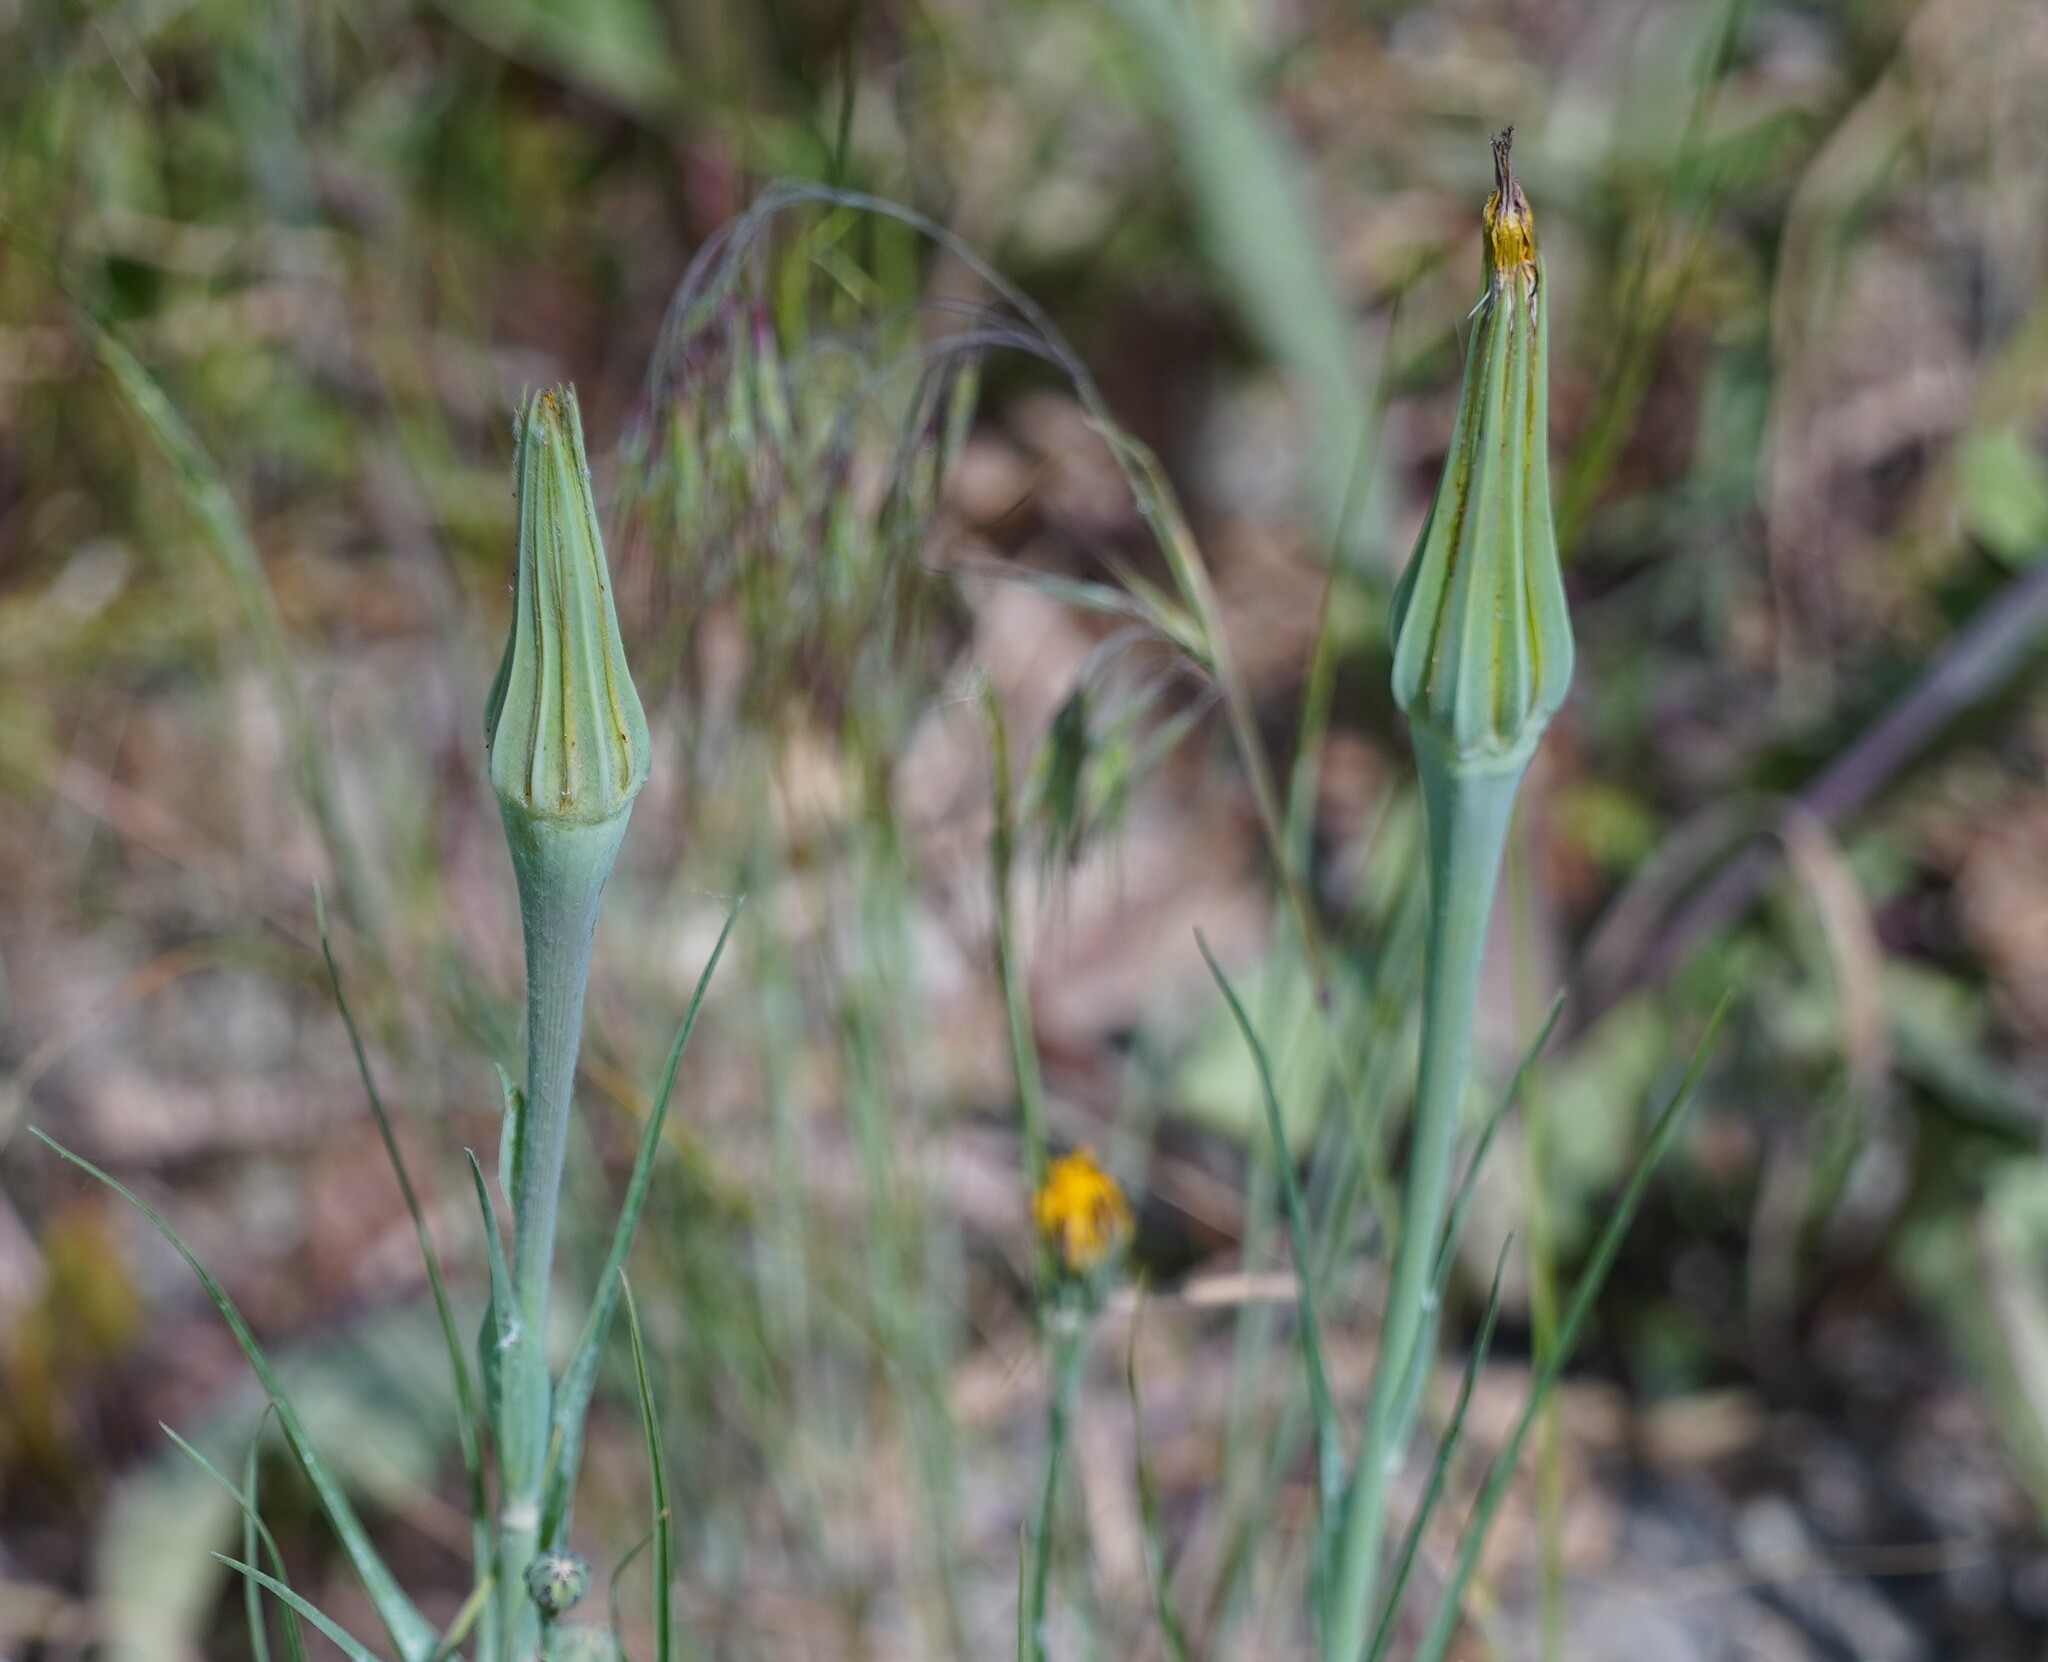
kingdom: Plantae
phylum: Tracheophyta
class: Magnoliopsida
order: Asterales
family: Asteraceae
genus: Tragopogon
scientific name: Tragopogon dubius
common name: Yellow salsify
